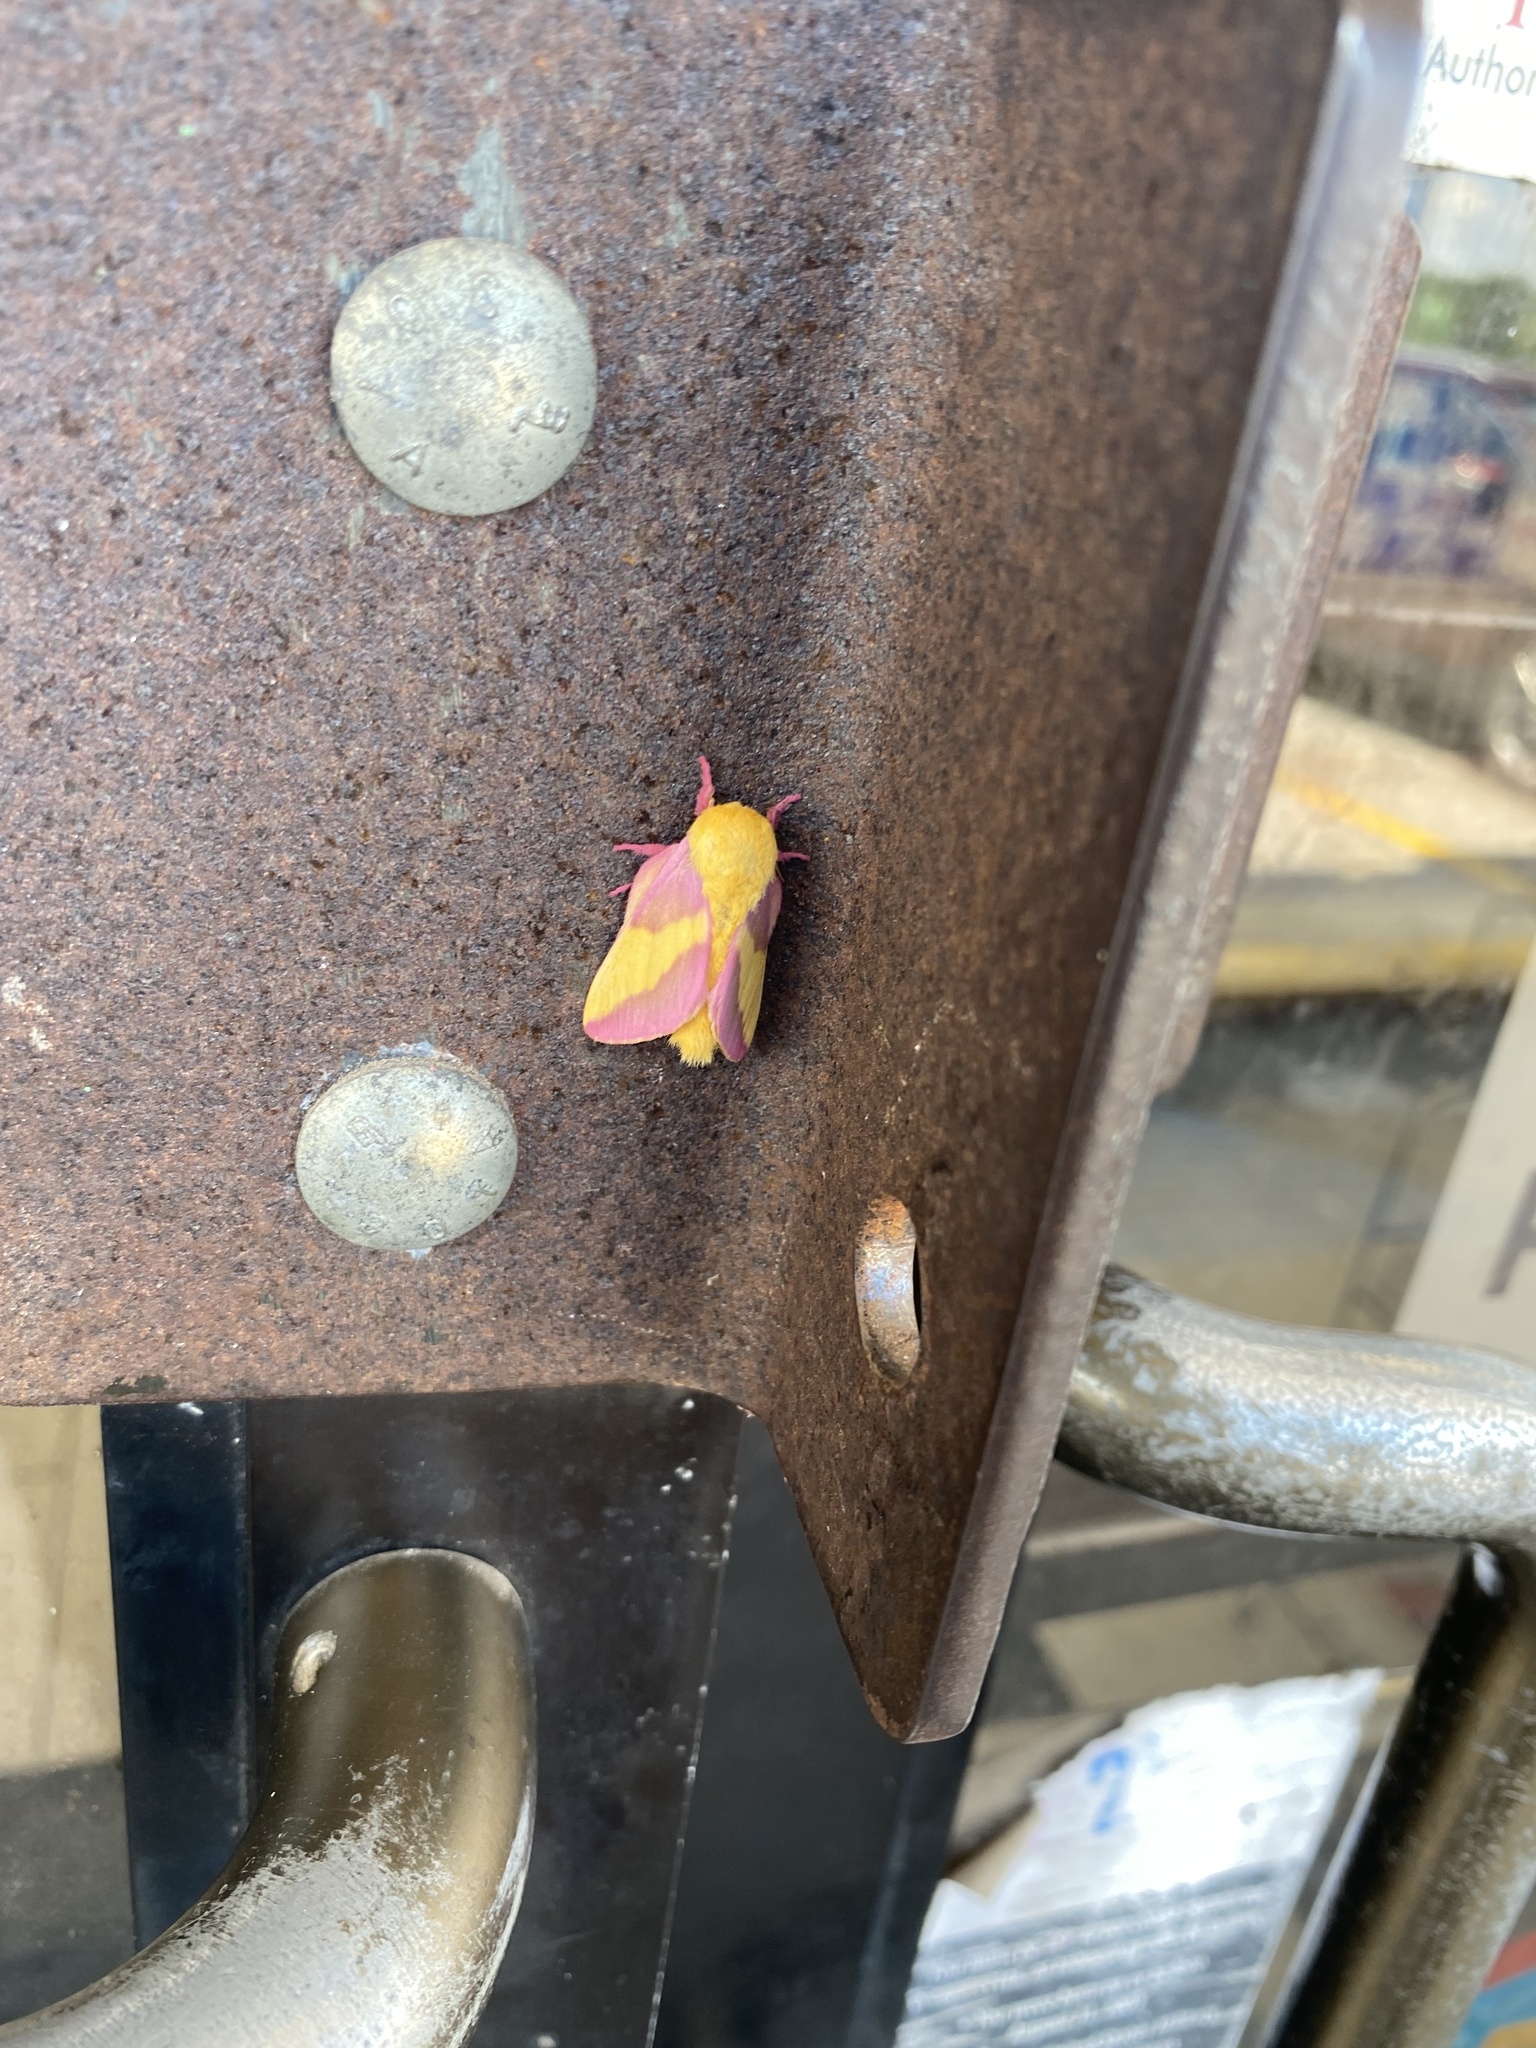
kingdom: Animalia
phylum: Arthropoda
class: Insecta
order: Lepidoptera
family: Saturniidae
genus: Dryocampa
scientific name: Dryocampa rubicunda
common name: Rosy maple moth
